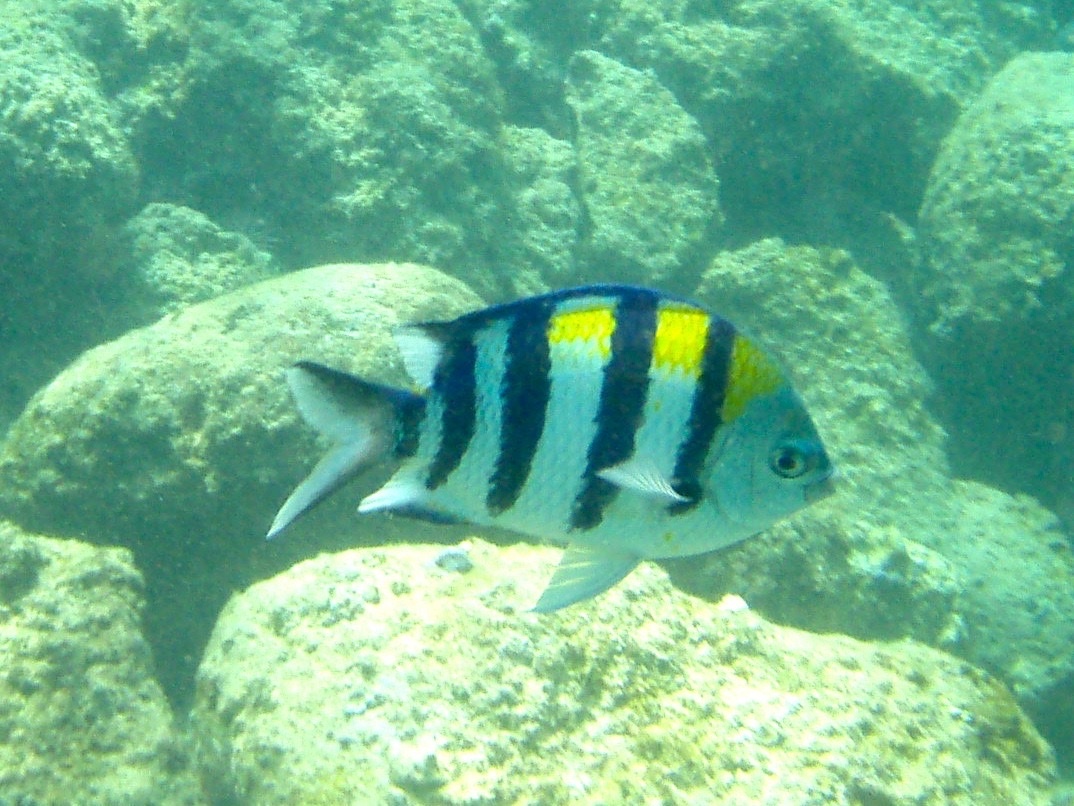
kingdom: Animalia
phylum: Chordata
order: Perciformes
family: Pomacentridae
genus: Abudefduf
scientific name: Abudefduf vaigiensis
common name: Indo-pacific sergeant
